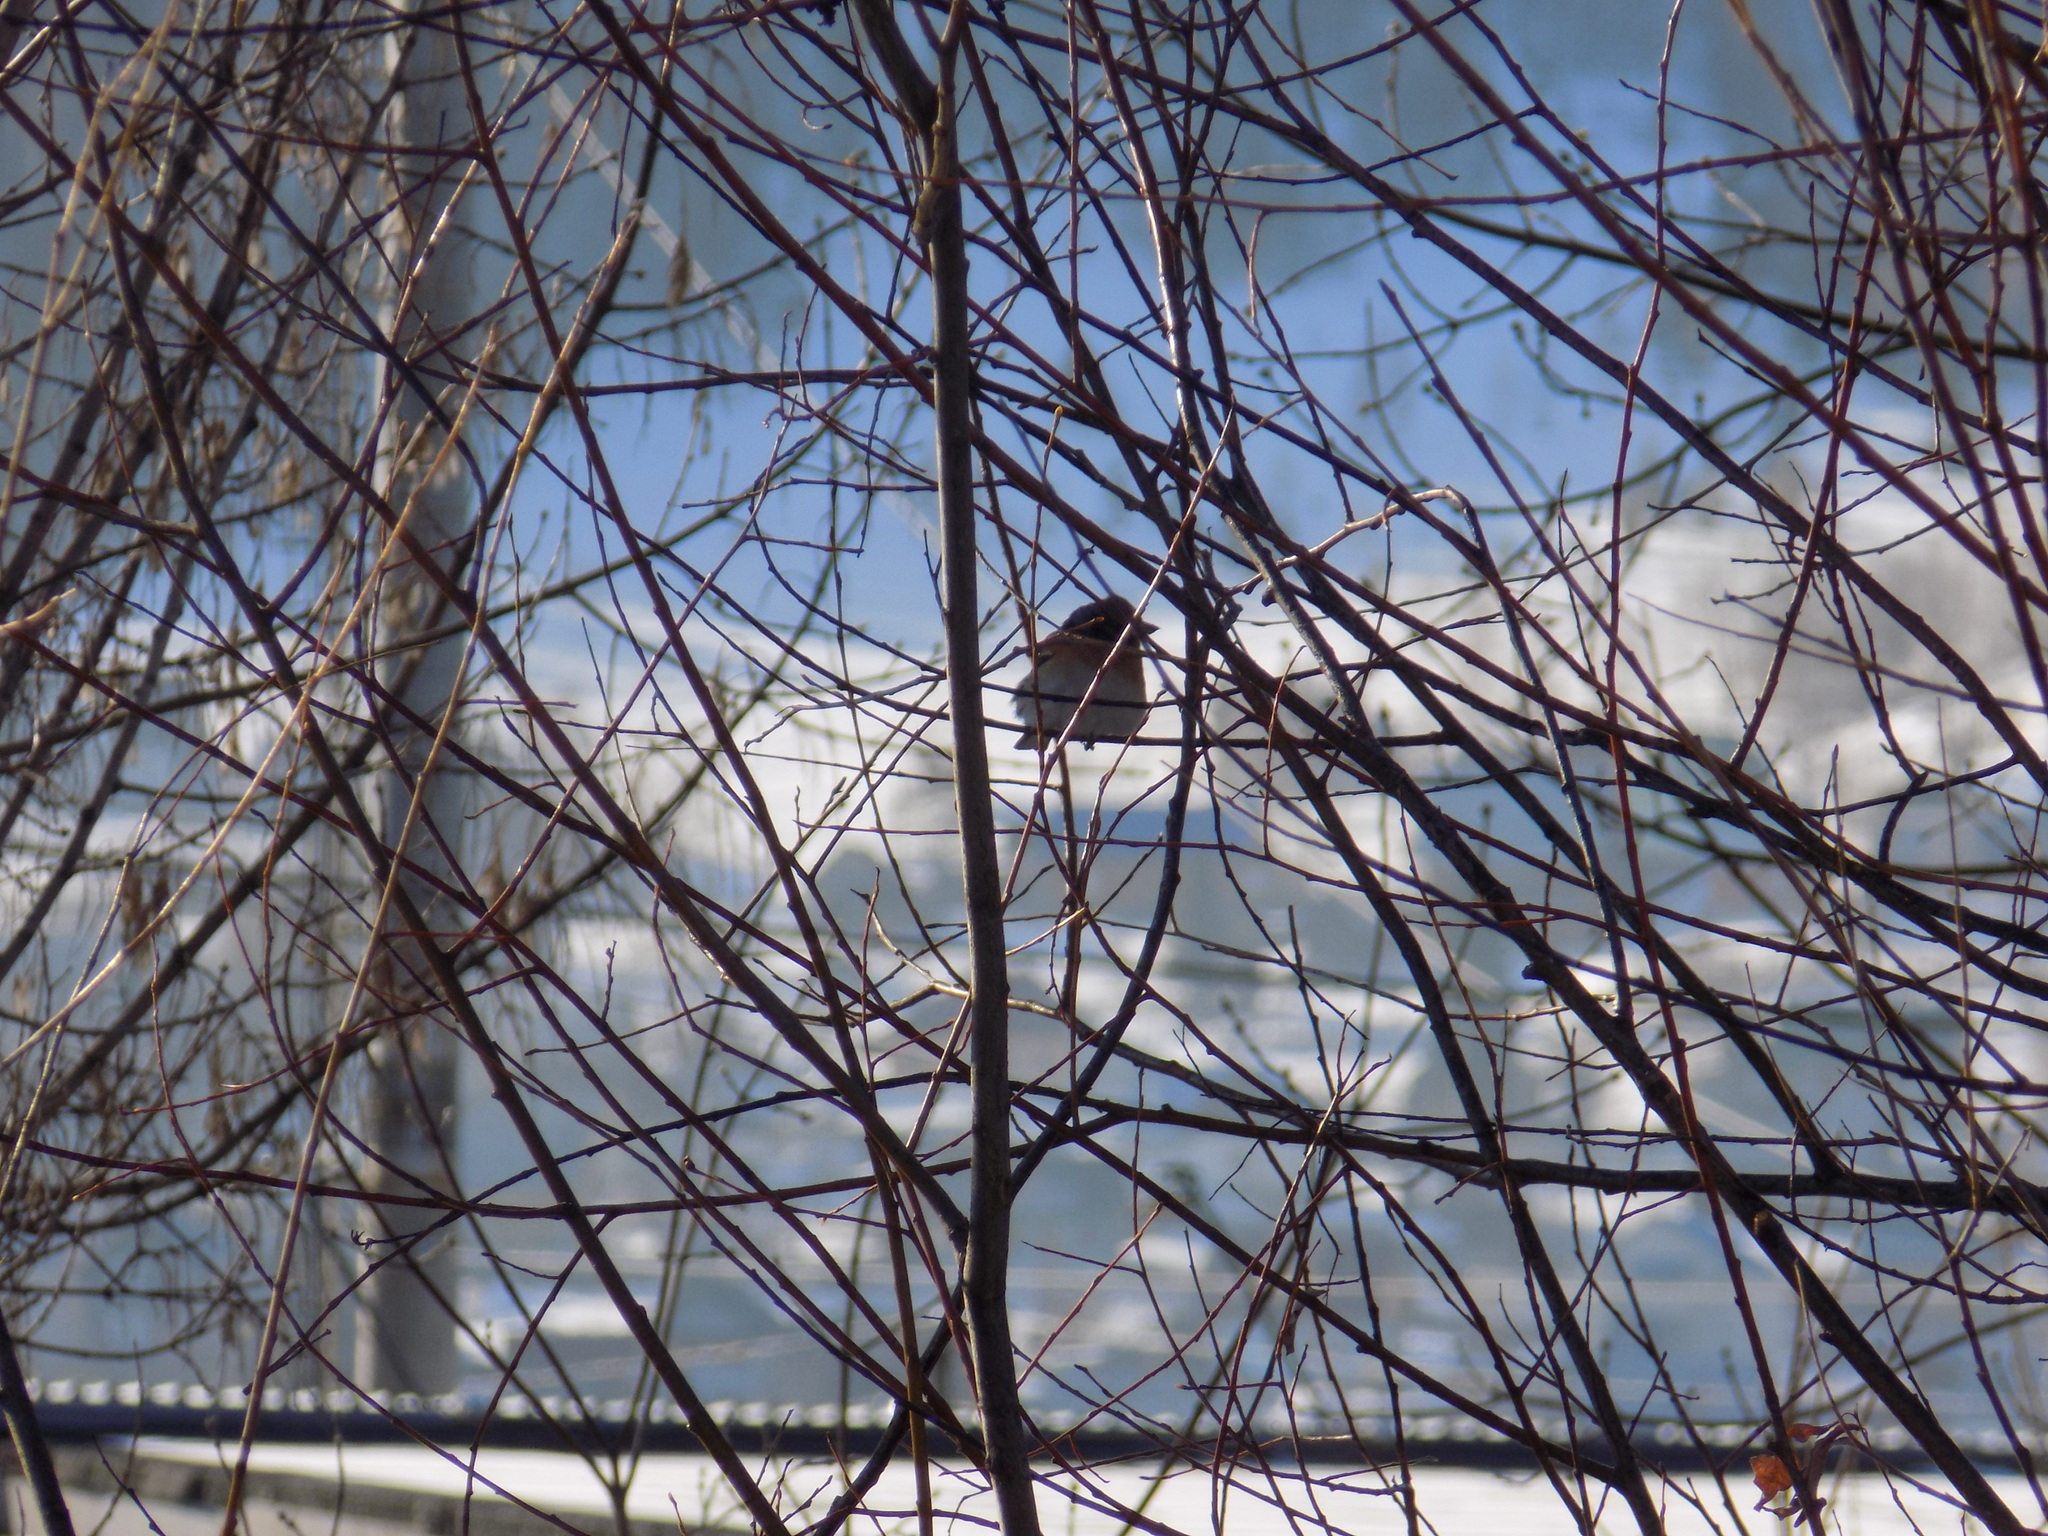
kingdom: Animalia
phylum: Chordata
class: Aves
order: Passeriformes
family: Fringillidae
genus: Fringilla
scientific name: Fringilla montifringilla
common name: Brambling
